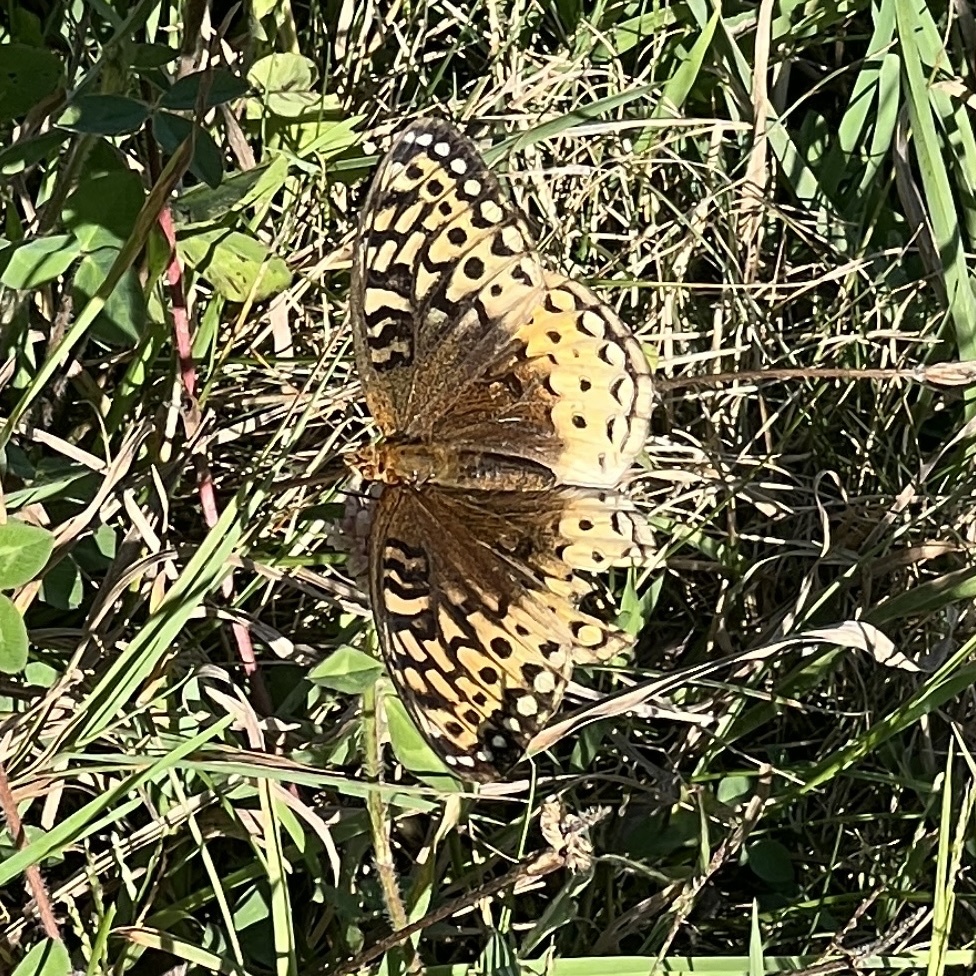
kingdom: Animalia
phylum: Arthropoda
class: Insecta
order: Lepidoptera
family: Nymphalidae
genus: Speyeria
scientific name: Speyeria cybele
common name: Great spangled fritillary
